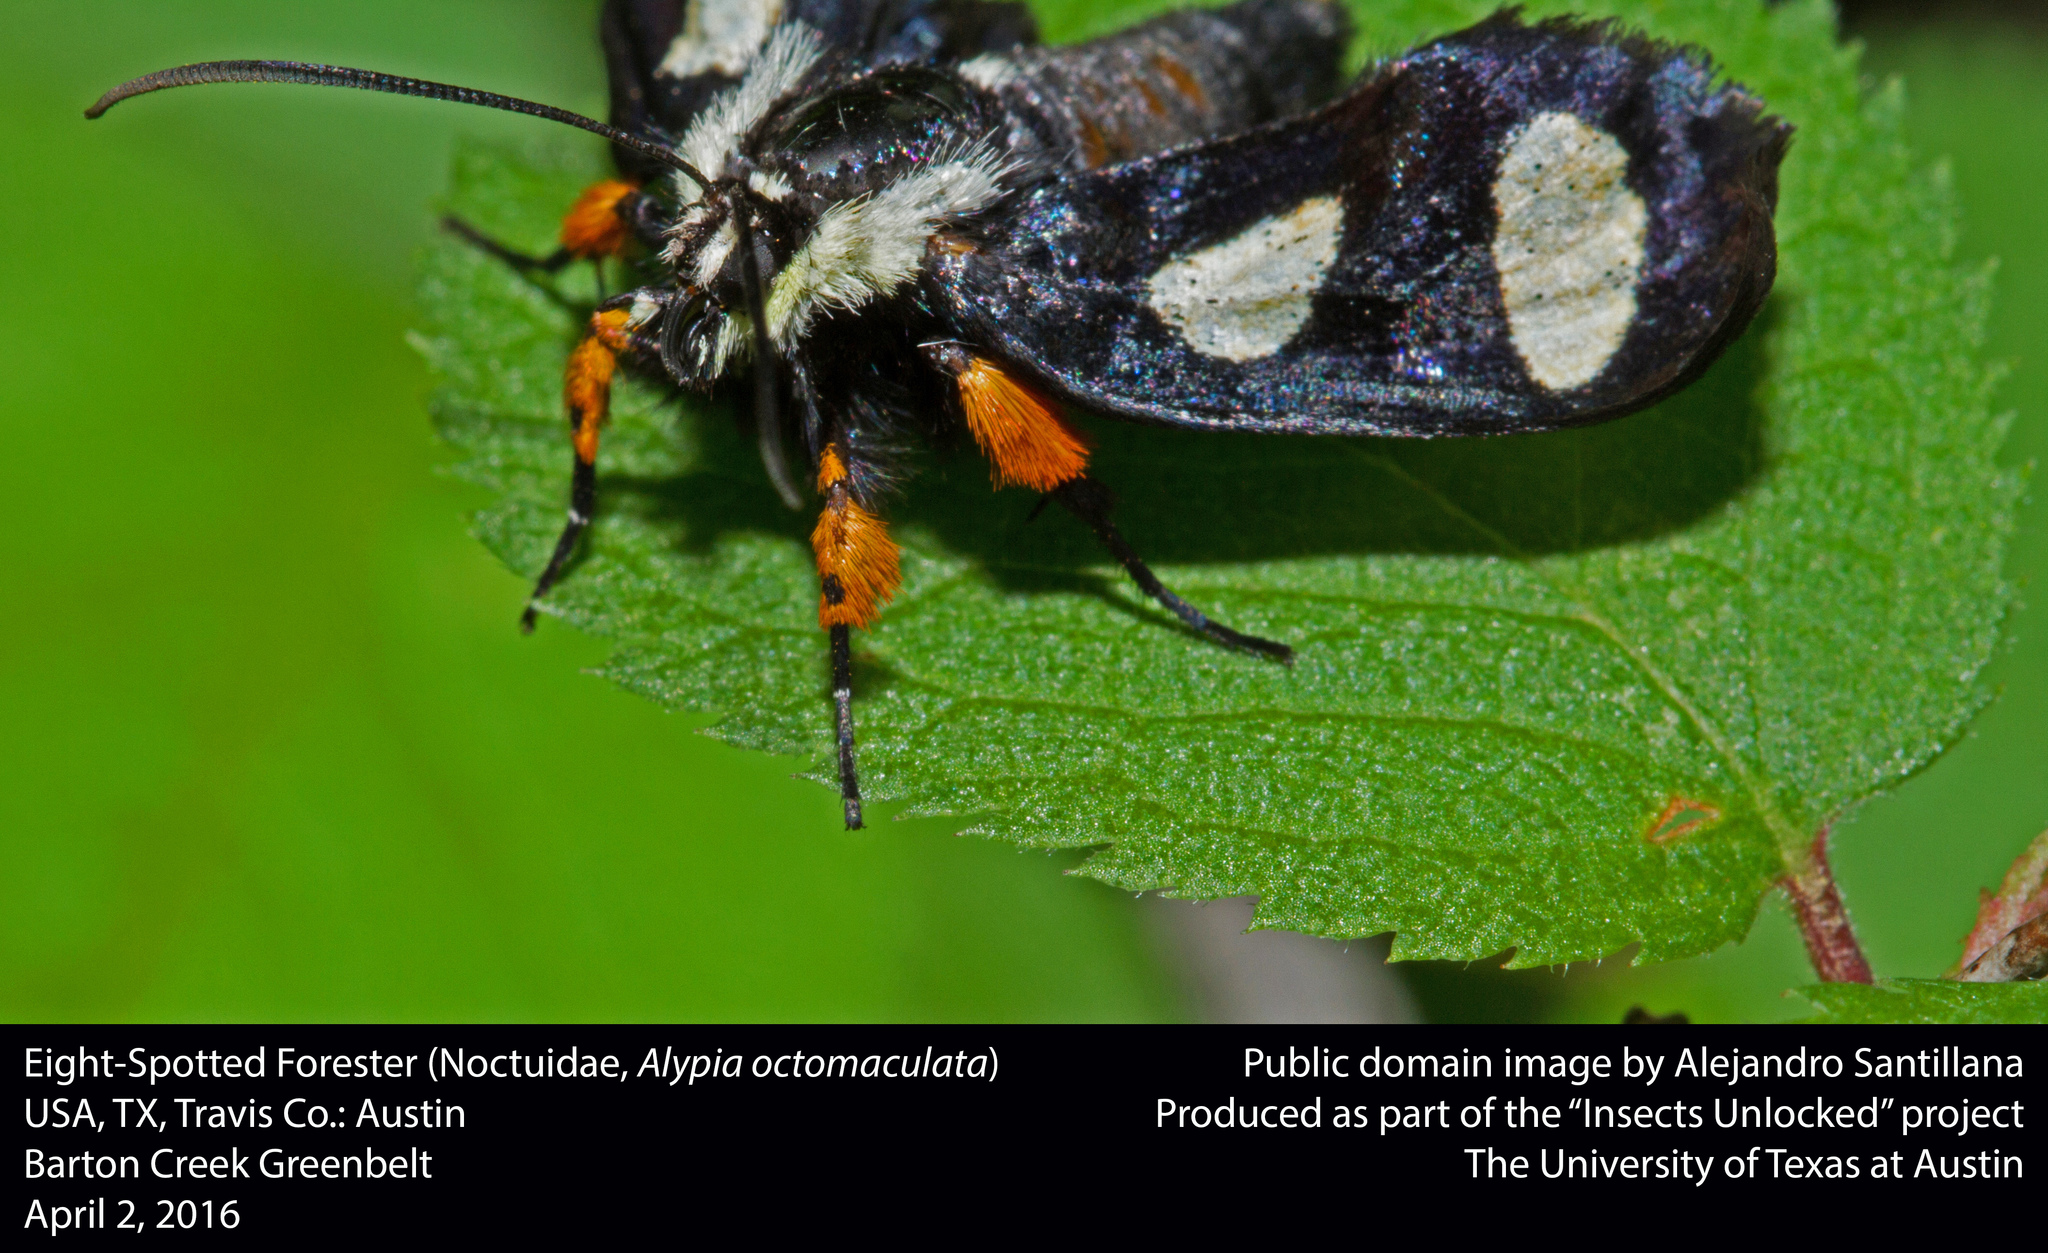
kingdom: Animalia
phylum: Arthropoda
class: Insecta
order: Lepidoptera
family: Noctuidae
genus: Alypia
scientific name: Alypia octomaculata
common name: Eight-spotted forester
